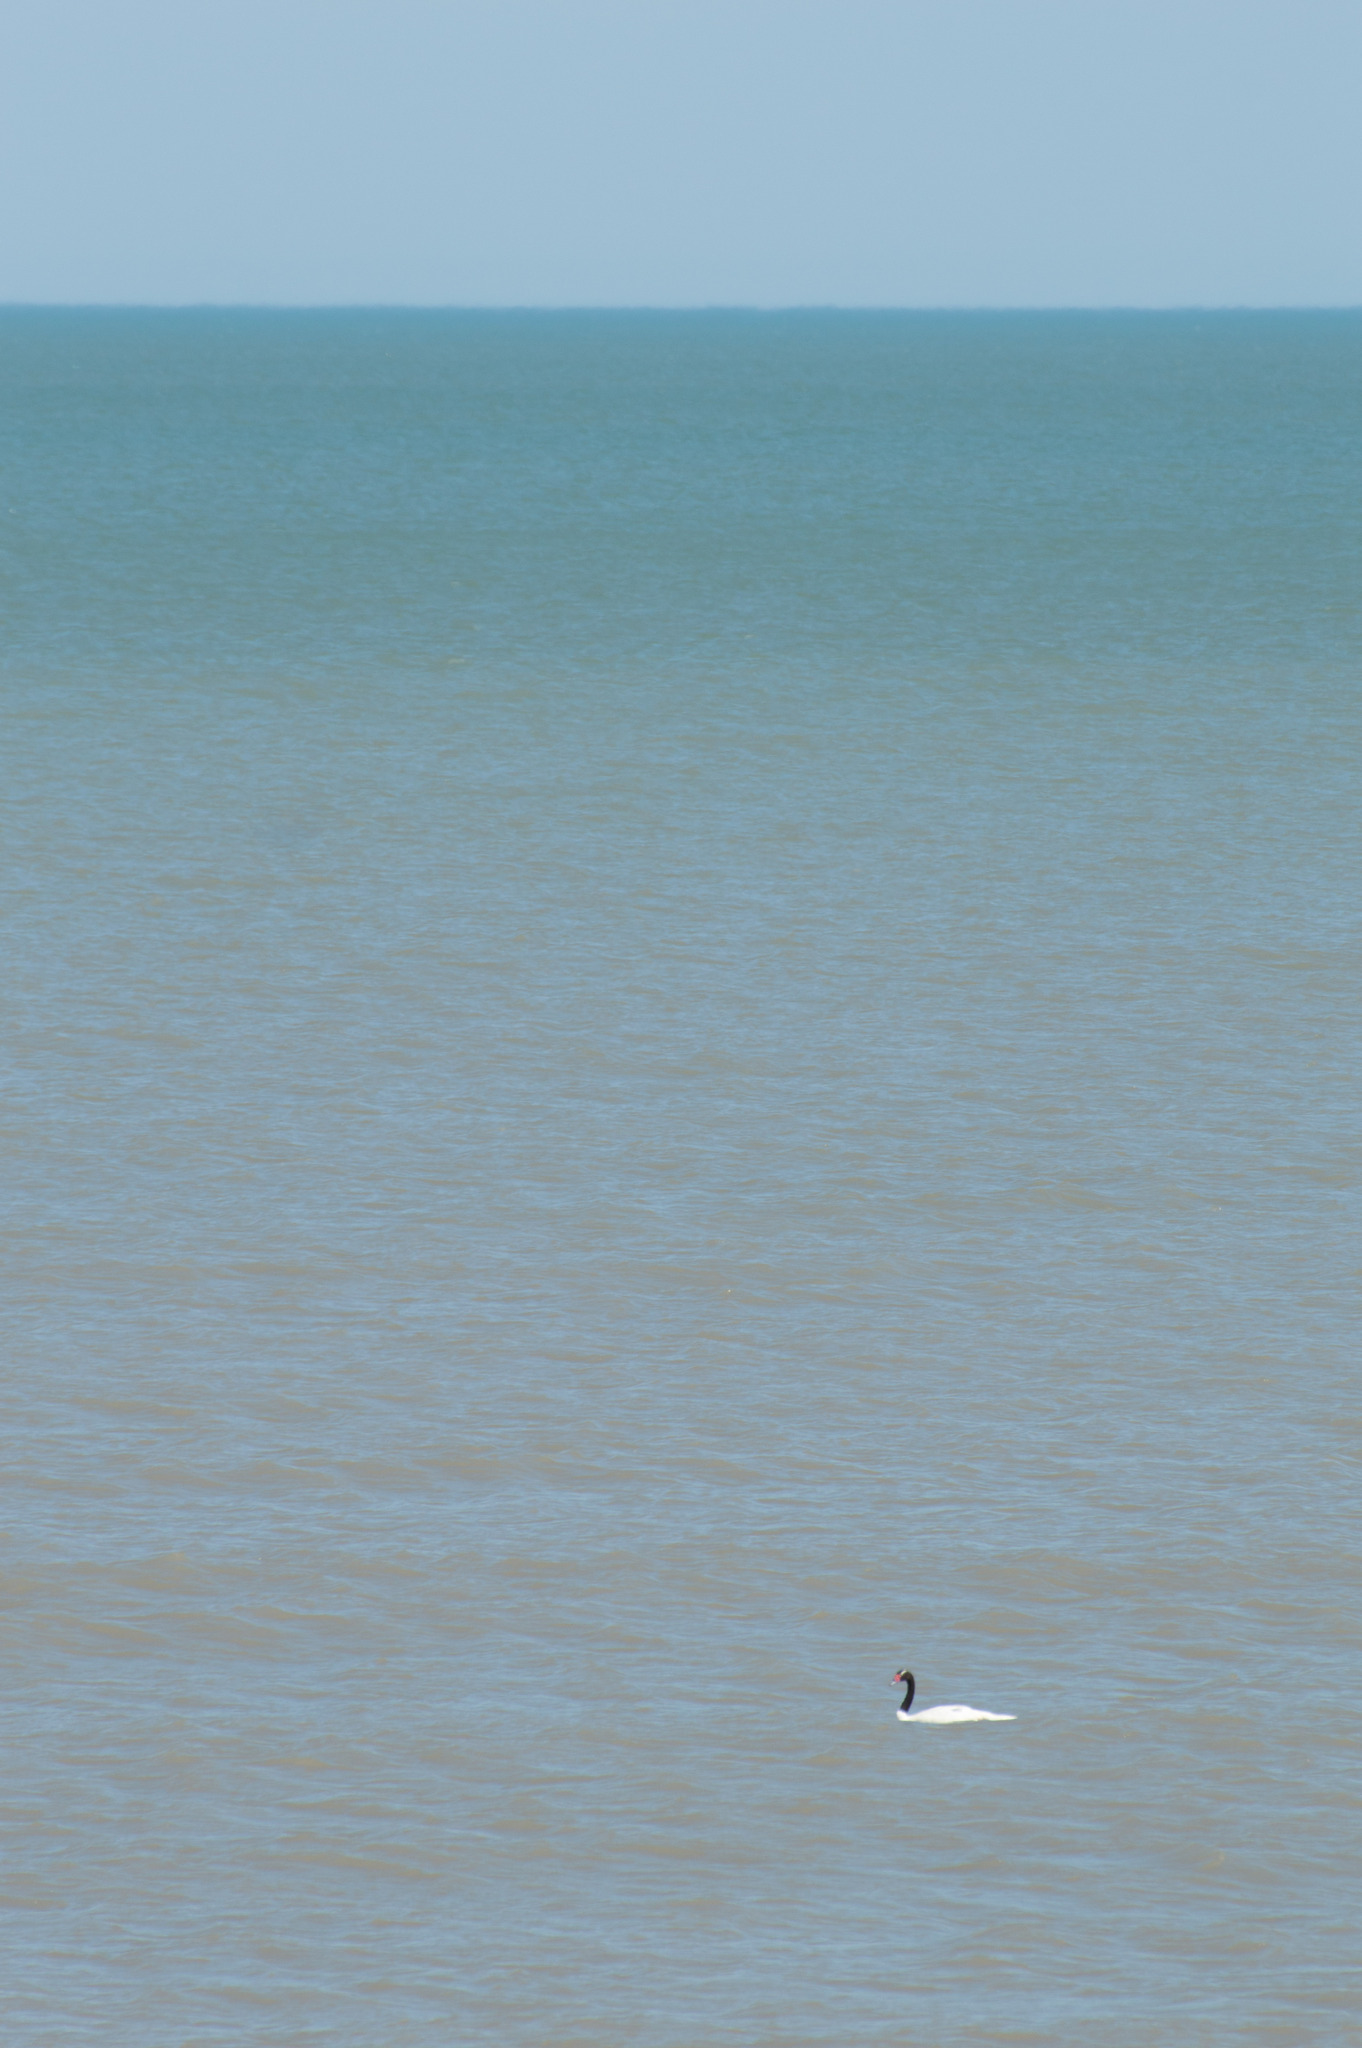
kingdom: Animalia
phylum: Chordata
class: Aves
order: Anseriformes
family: Anatidae
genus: Cygnus
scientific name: Cygnus melancoryphus
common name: Black-necked swan
